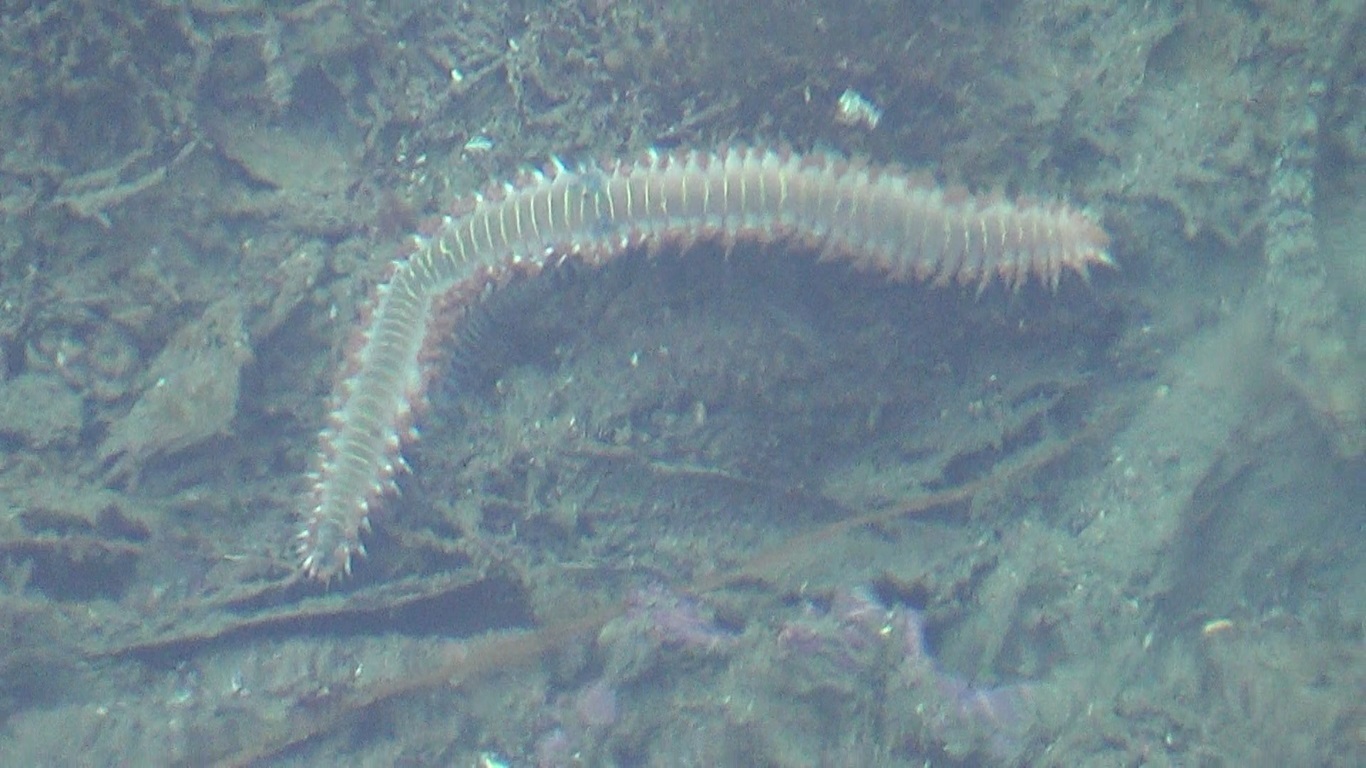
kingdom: Animalia
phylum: Annelida
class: Polychaeta
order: Amphinomida
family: Amphinomidae
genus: Hermodice
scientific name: Hermodice carunculata
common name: Bearded fireworm
